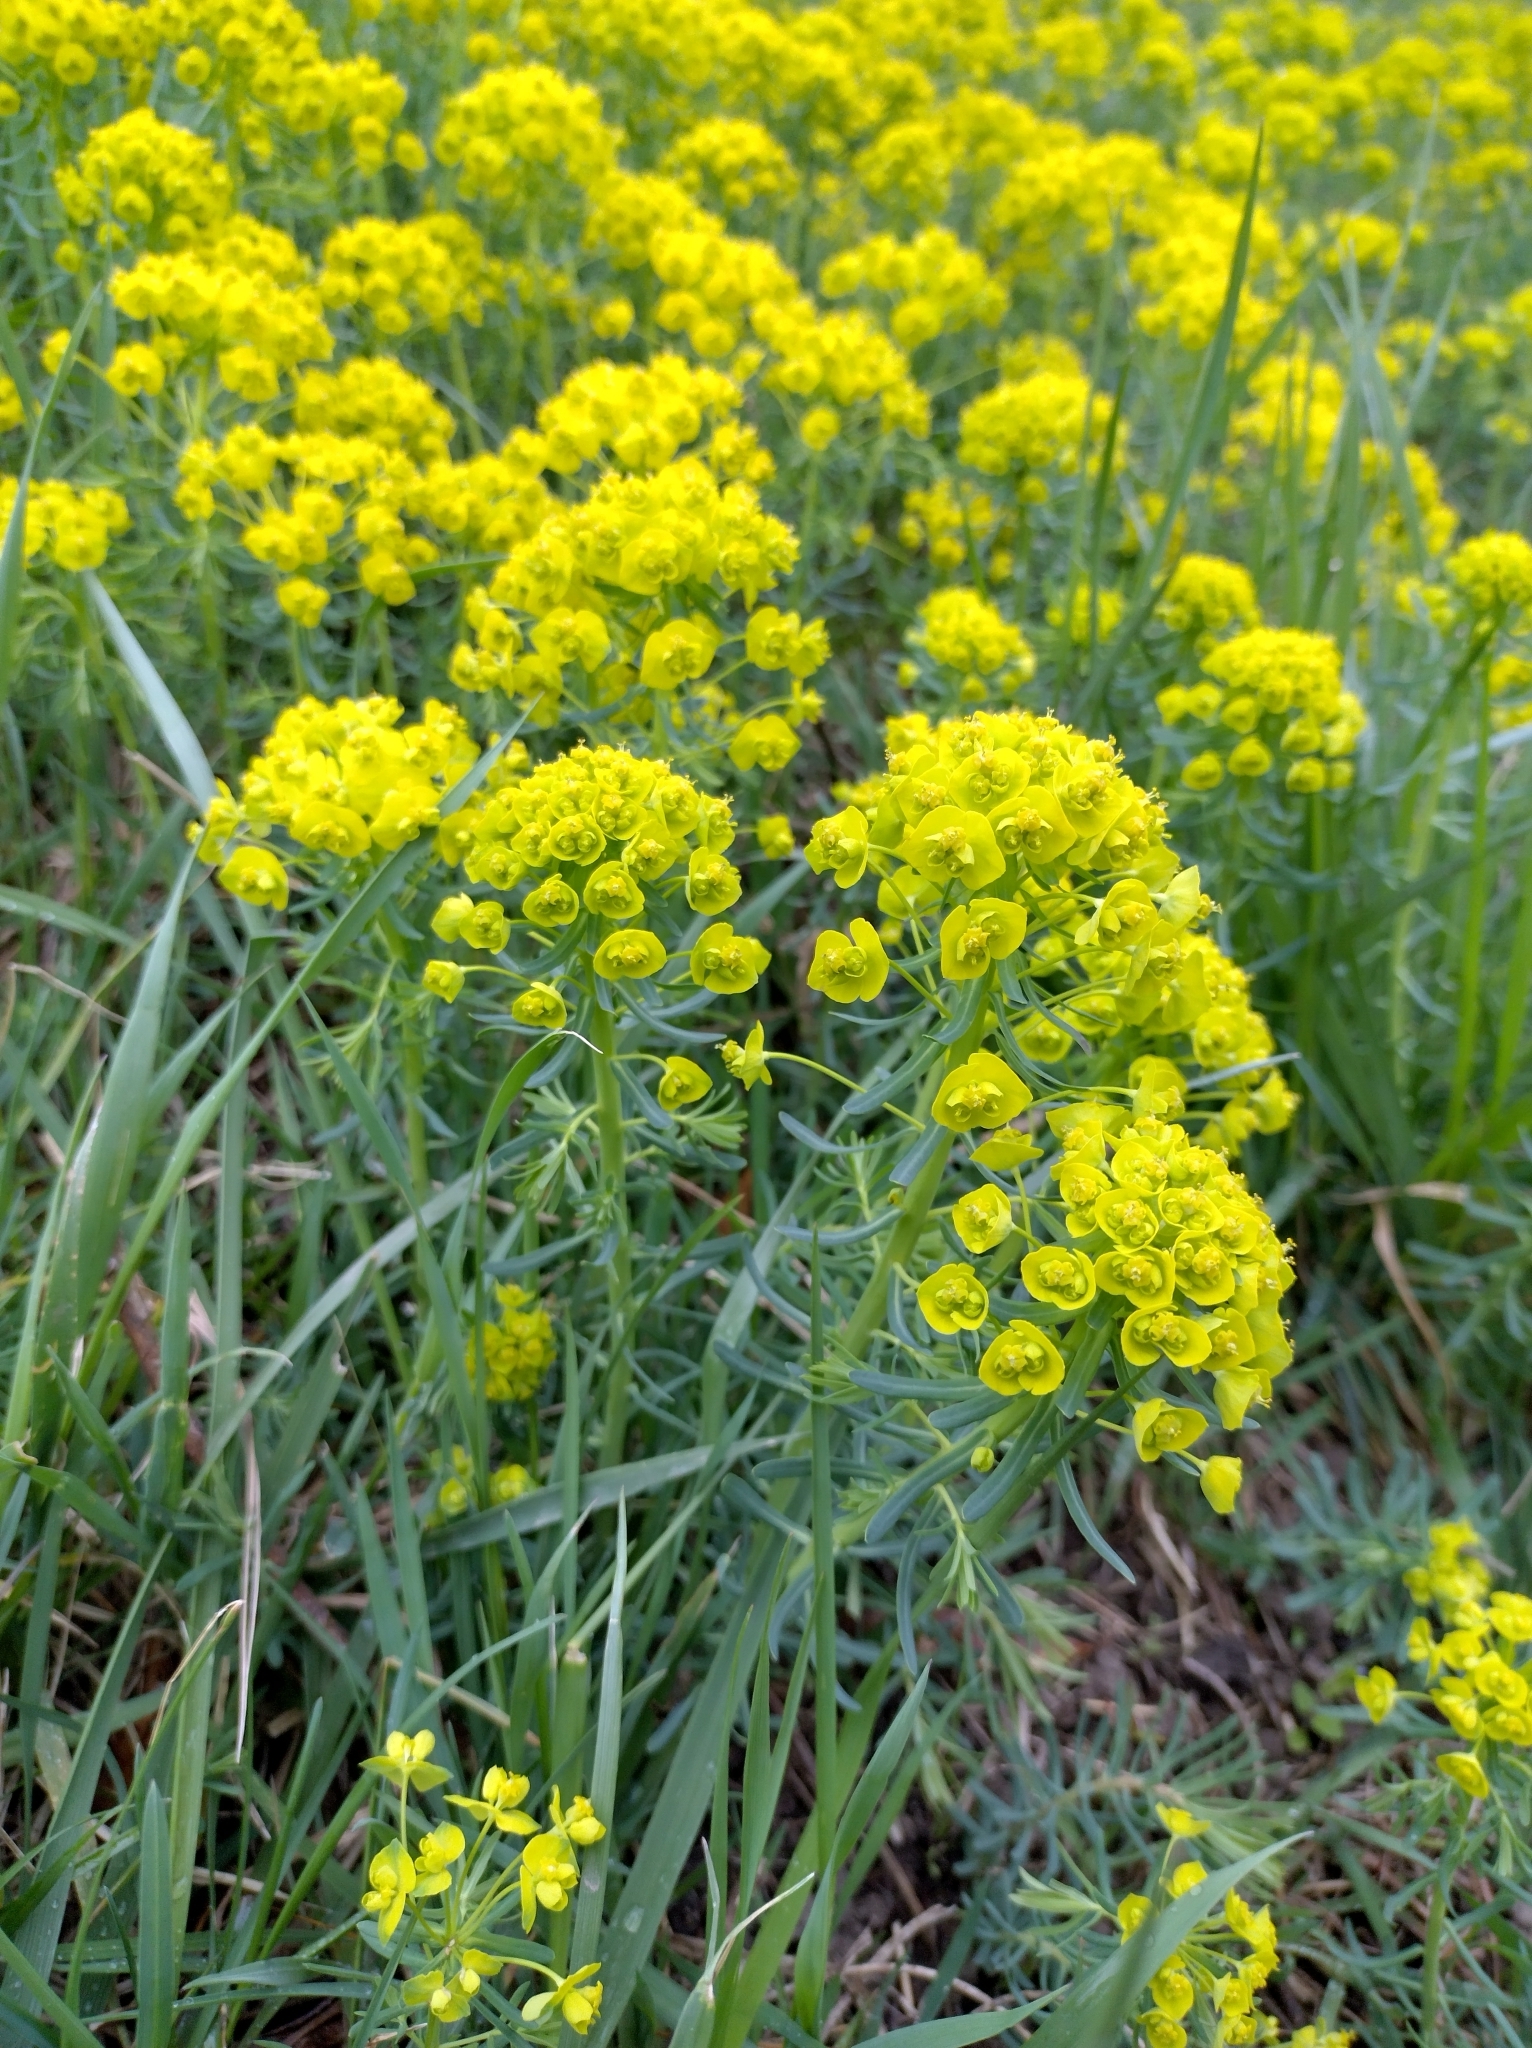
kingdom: Plantae
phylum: Tracheophyta
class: Magnoliopsida
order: Malpighiales
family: Euphorbiaceae
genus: Euphorbia
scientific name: Euphorbia cyparissias
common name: Cypress spurge
